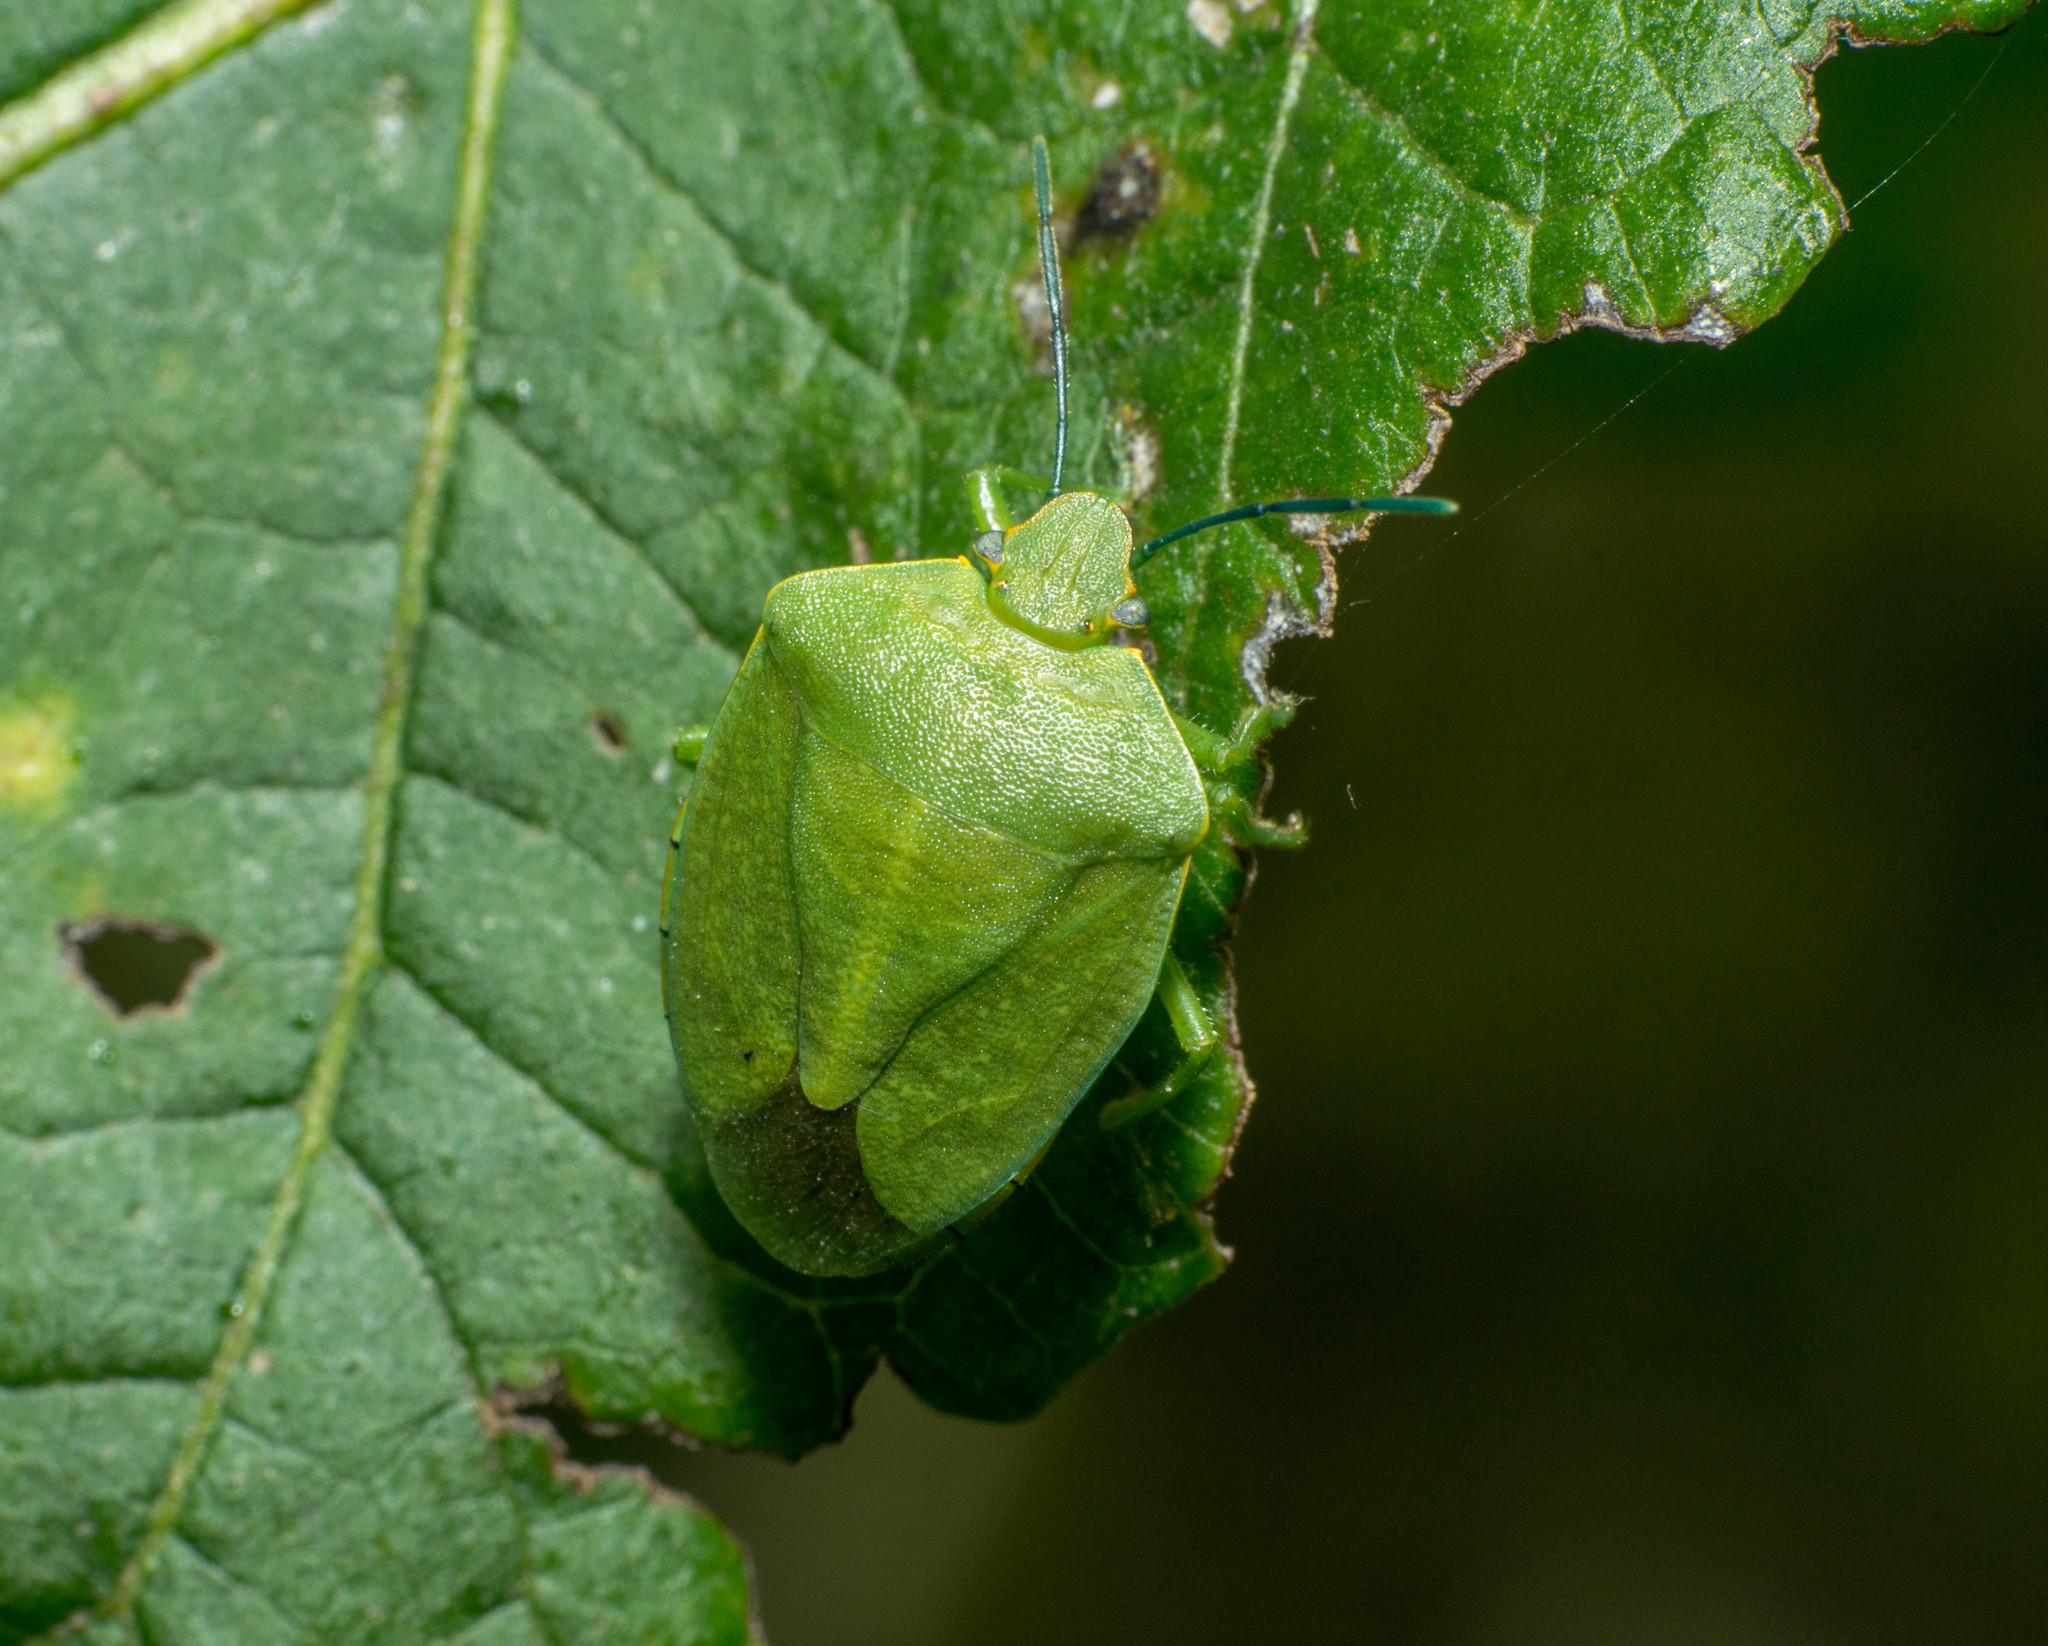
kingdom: Animalia
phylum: Arthropoda
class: Insecta
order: Hemiptera
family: Pentatomidae
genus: Chinavia
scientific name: Chinavia herbida
